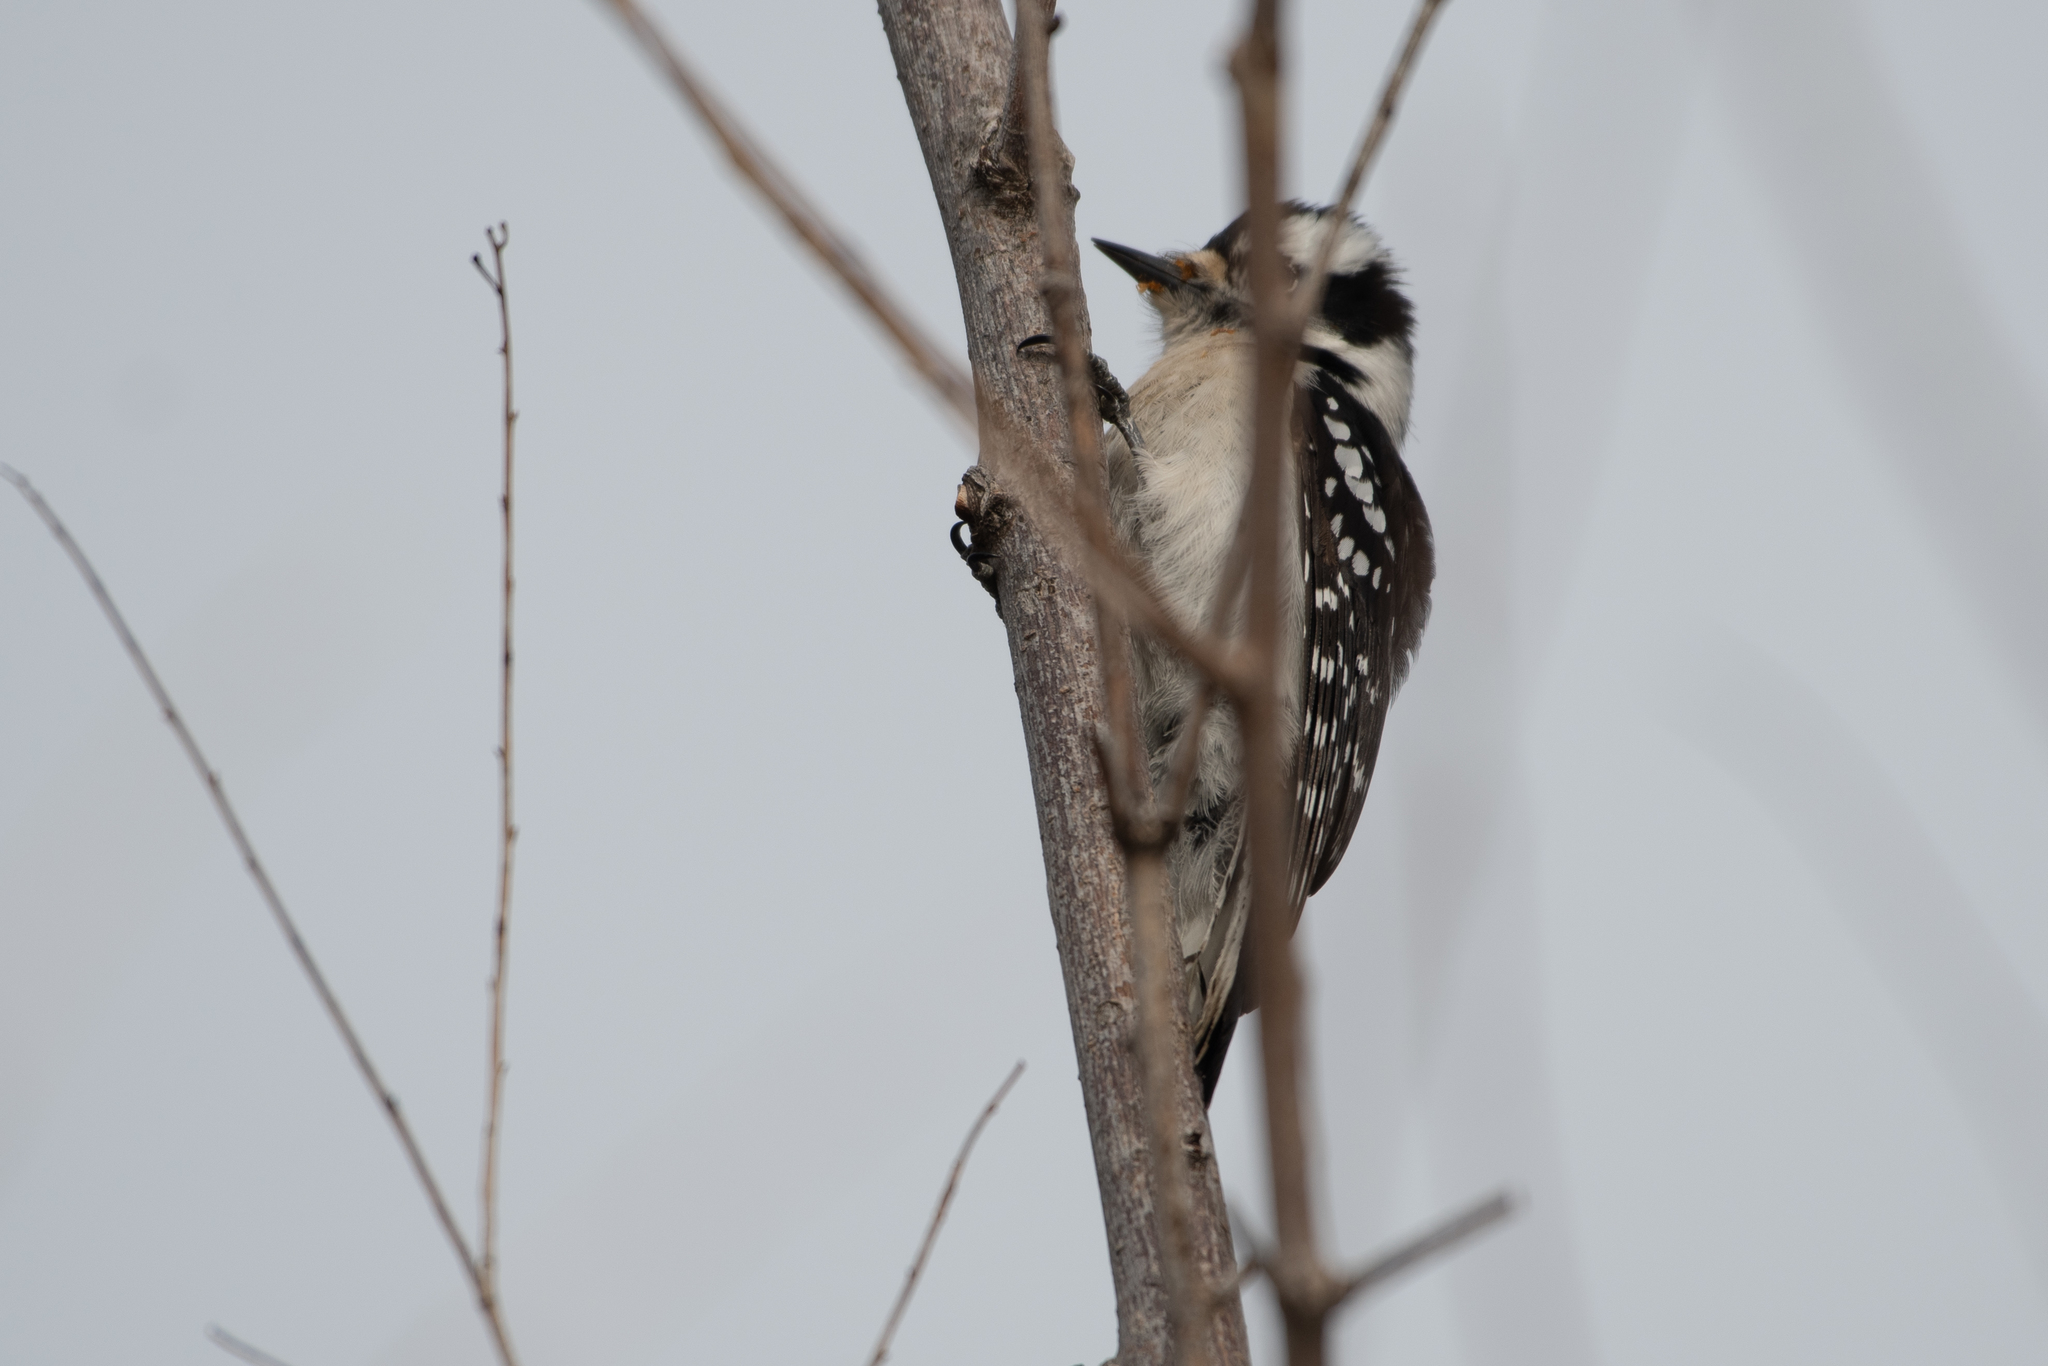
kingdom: Animalia
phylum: Chordata
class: Aves
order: Piciformes
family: Picidae
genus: Dryobates
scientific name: Dryobates pubescens
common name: Downy woodpecker
